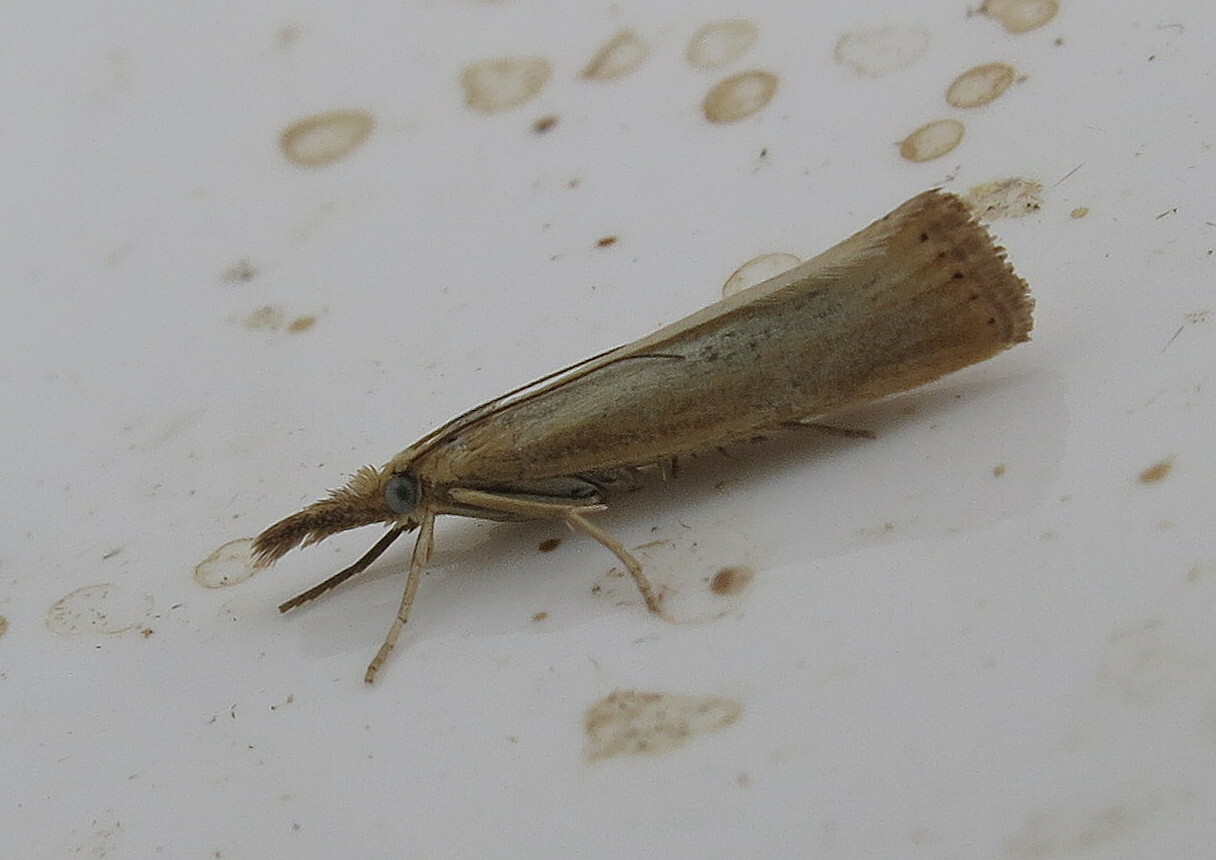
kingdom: Animalia
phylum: Arthropoda
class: Insecta
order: Lepidoptera
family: Crambidae
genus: Agriphila
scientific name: Agriphila straminella
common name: Straw grass-veneer
